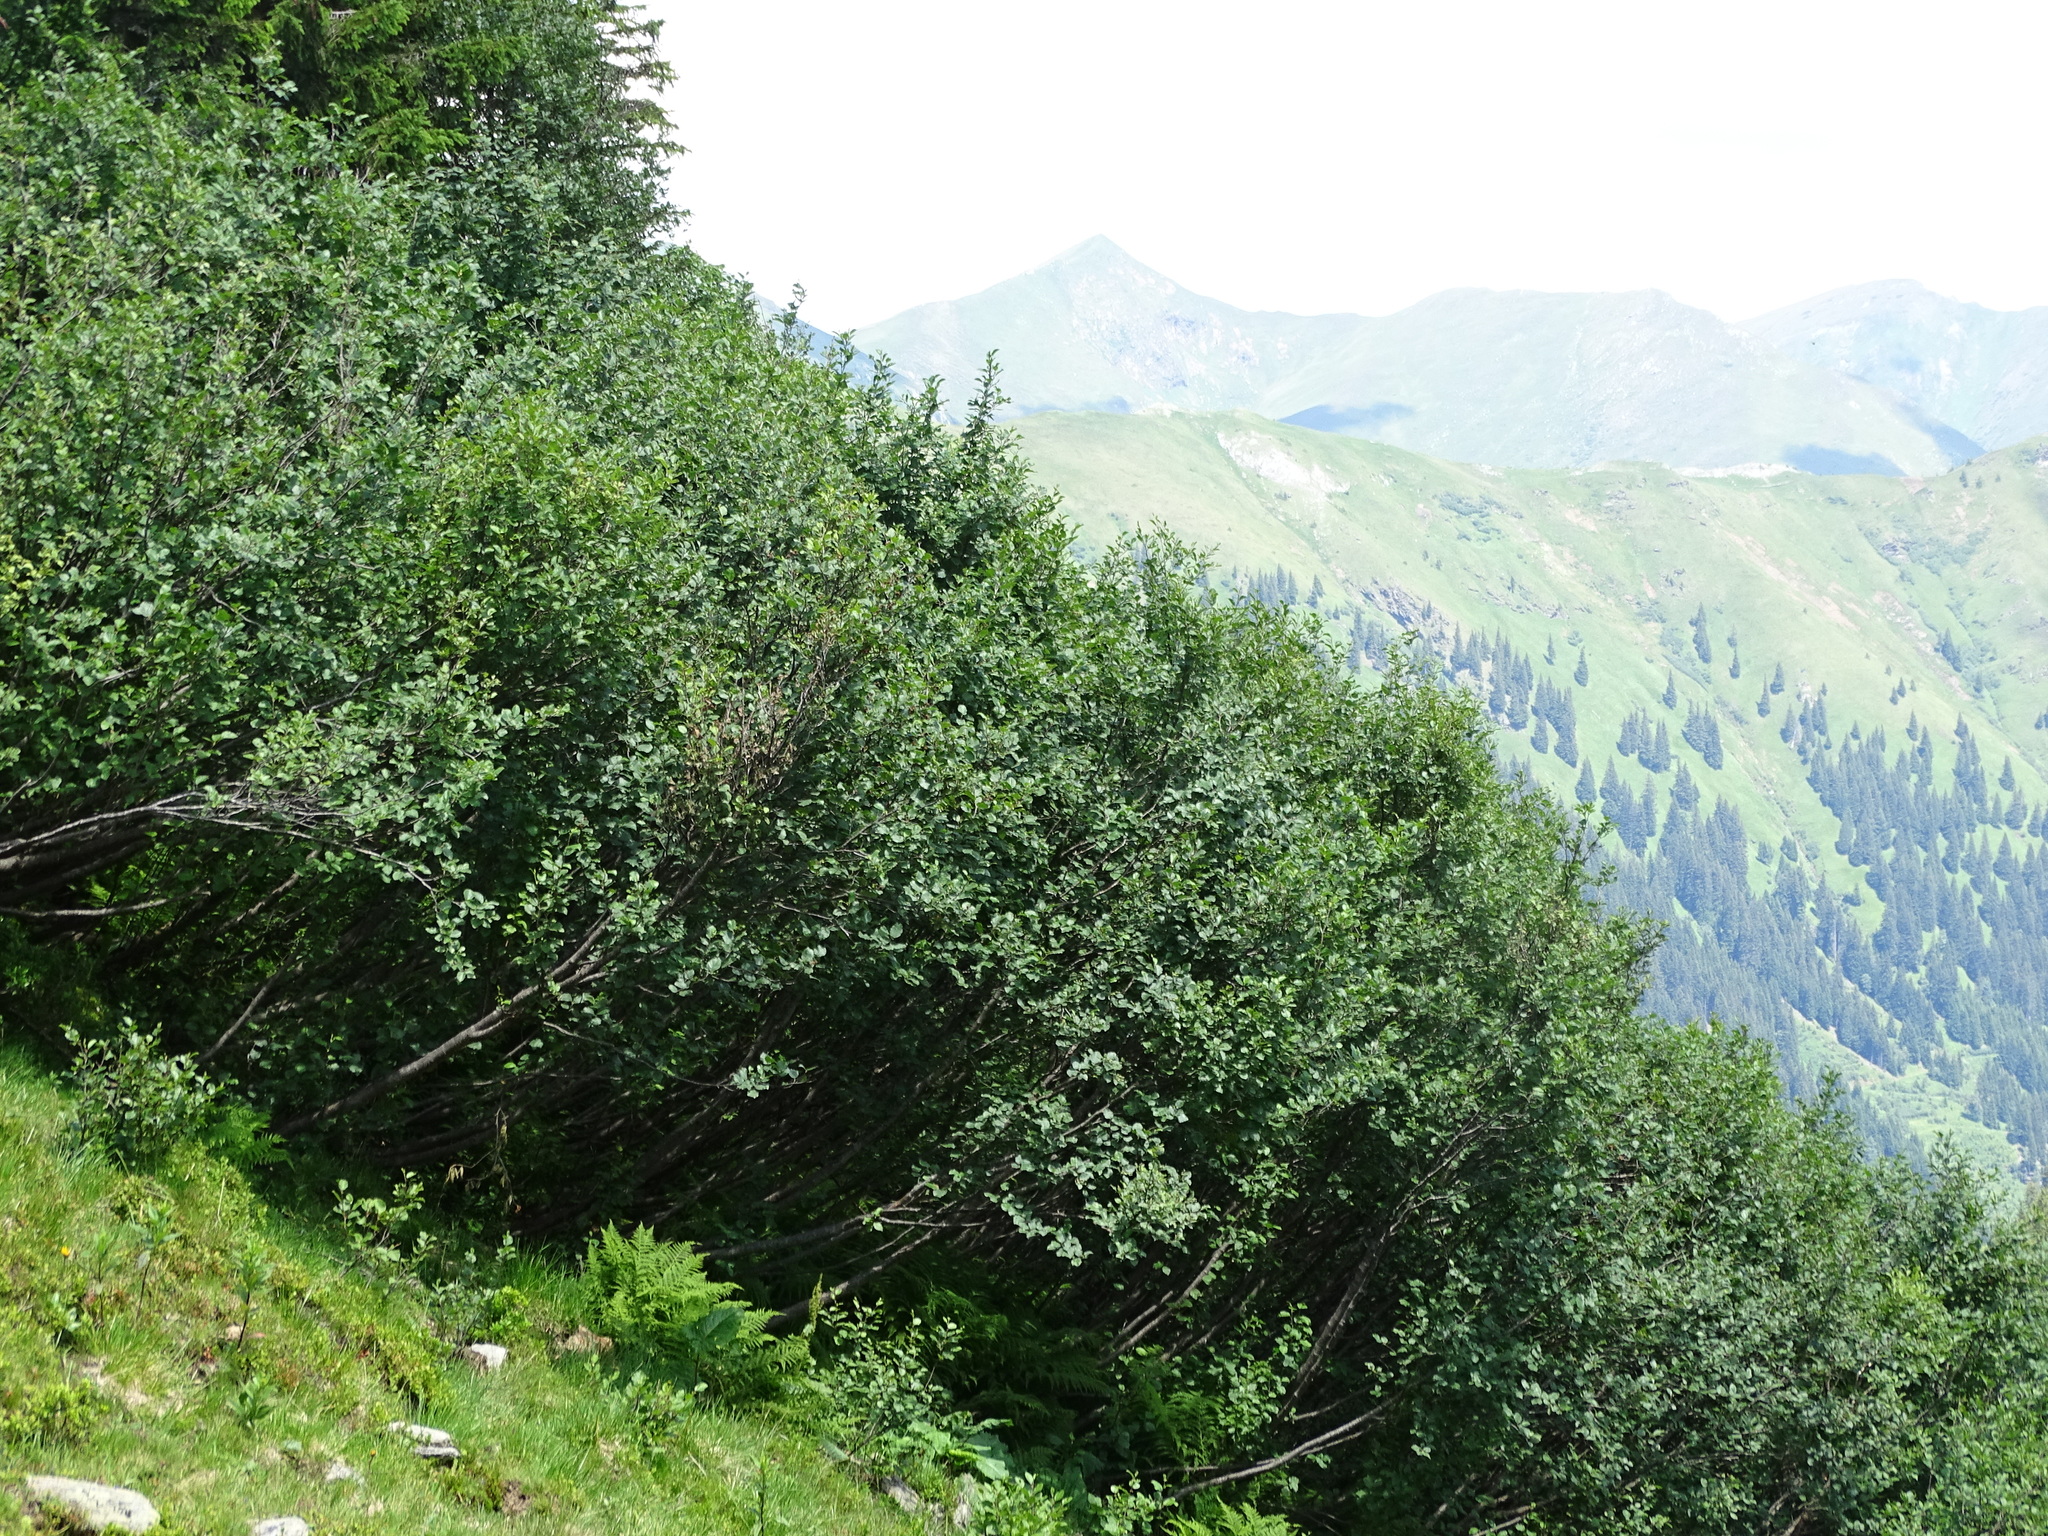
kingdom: Plantae
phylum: Tracheophyta
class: Magnoliopsida
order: Fagales
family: Betulaceae
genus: Alnus
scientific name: Alnus alnobetula
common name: Green alder
